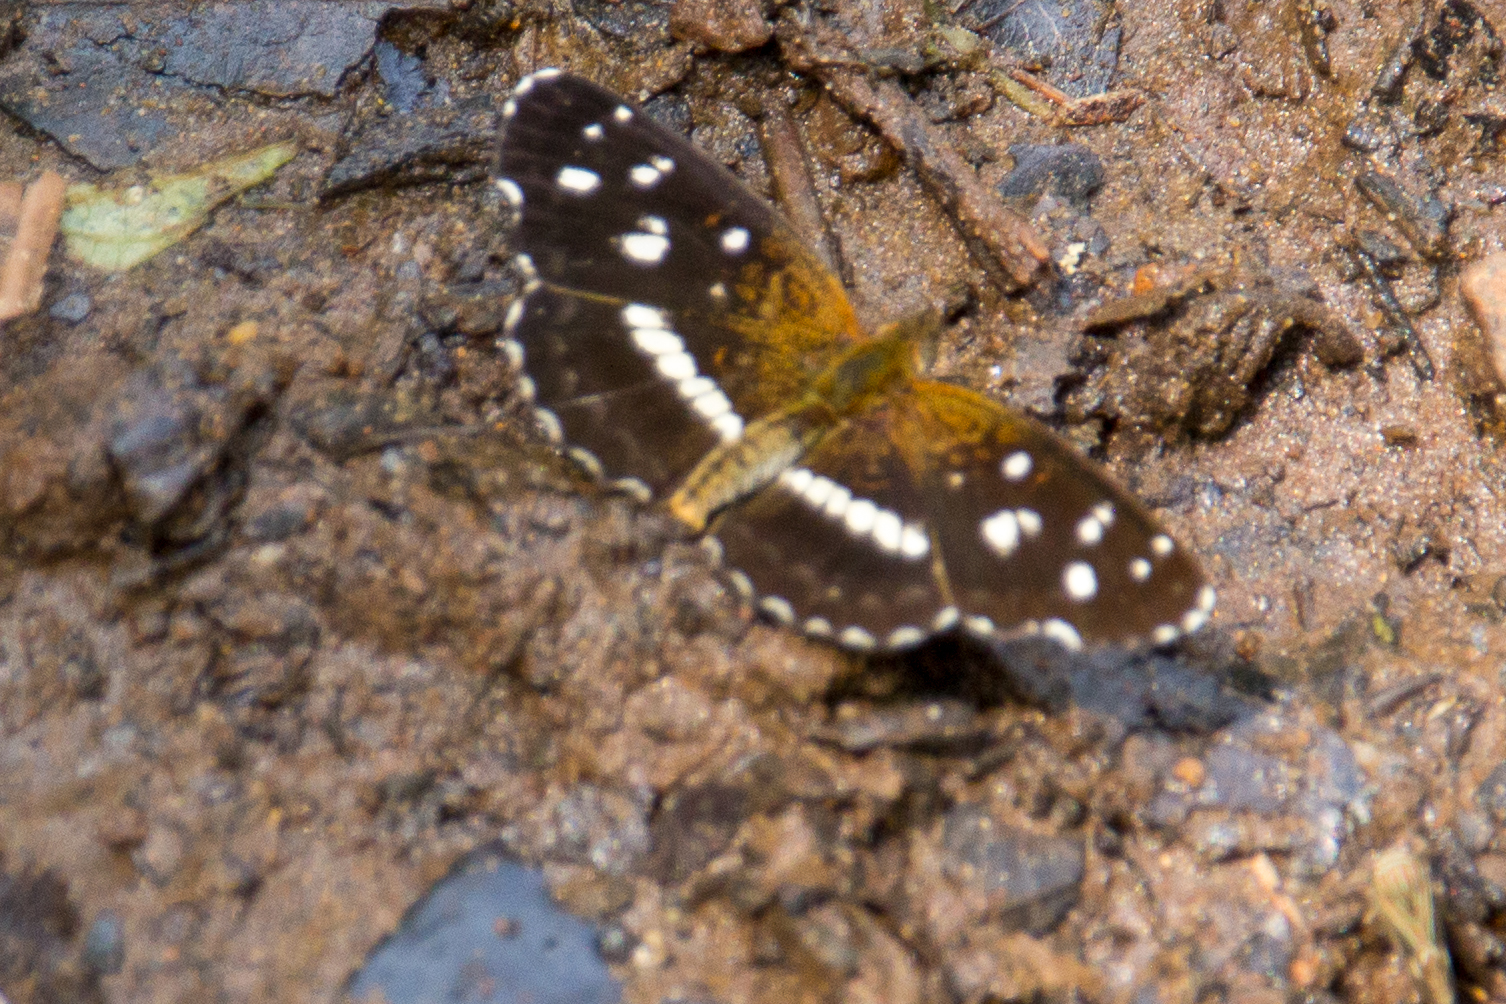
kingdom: Animalia
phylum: Arthropoda
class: Insecta
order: Lepidoptera
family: Nymphalidae
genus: Ortilia
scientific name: Ortilia ithra
